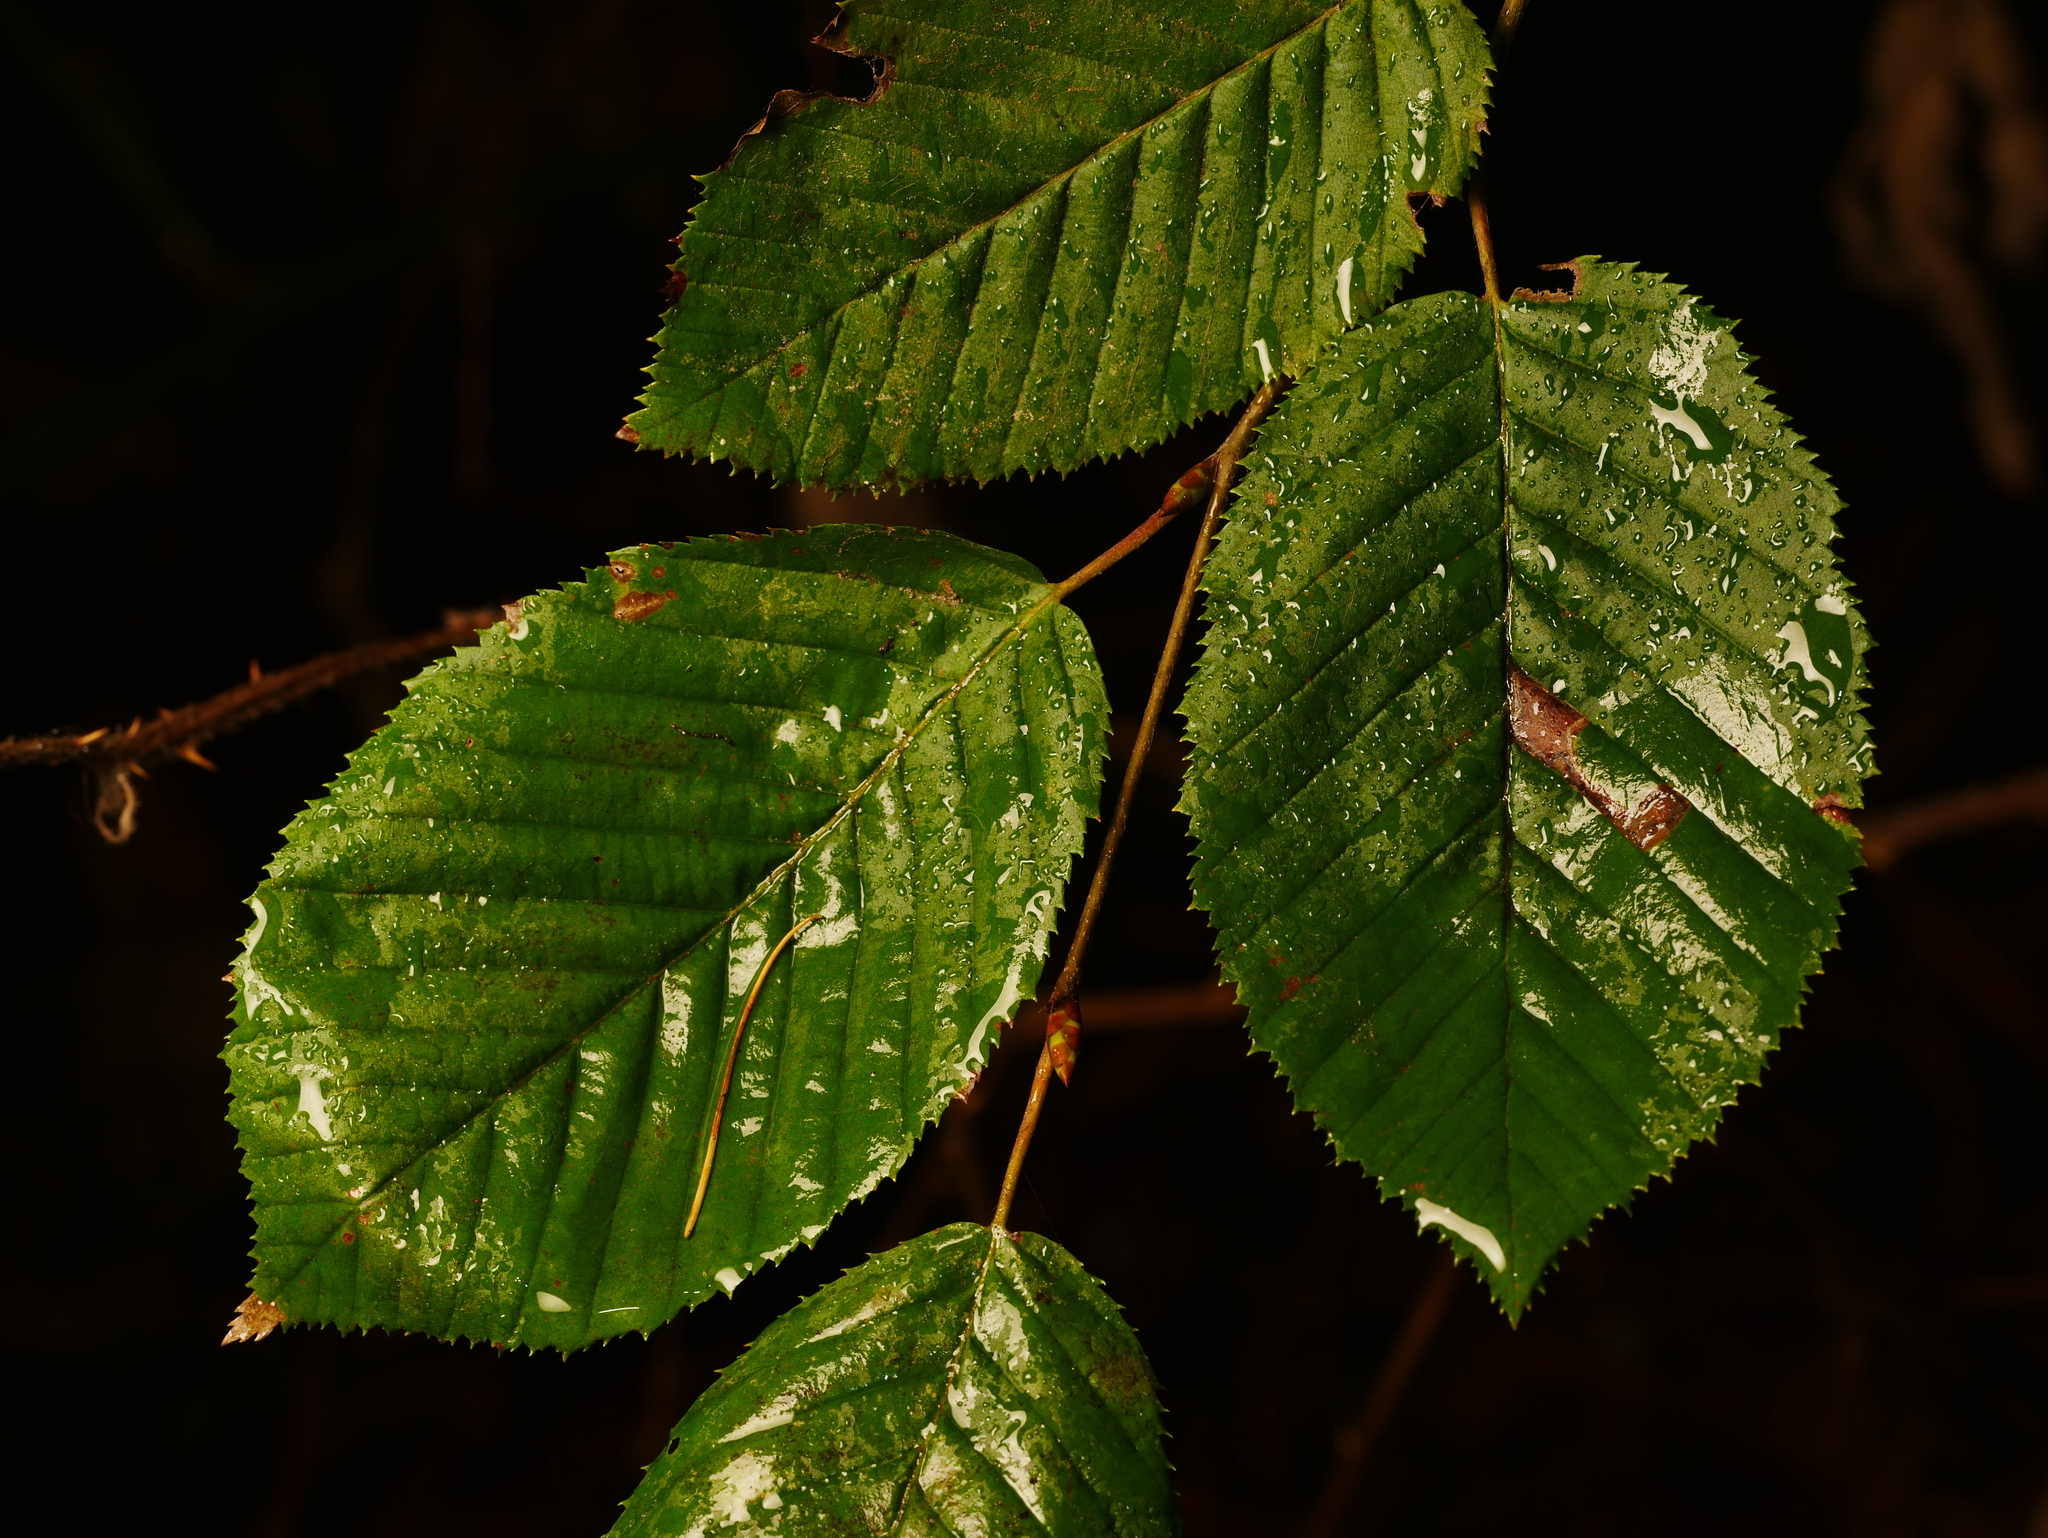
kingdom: Plantae
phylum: Tracheophyta
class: Magnoliopsida
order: Fagales
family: Betulaceae
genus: Carpinus
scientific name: Carpinus betulus
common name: Hornbeam
